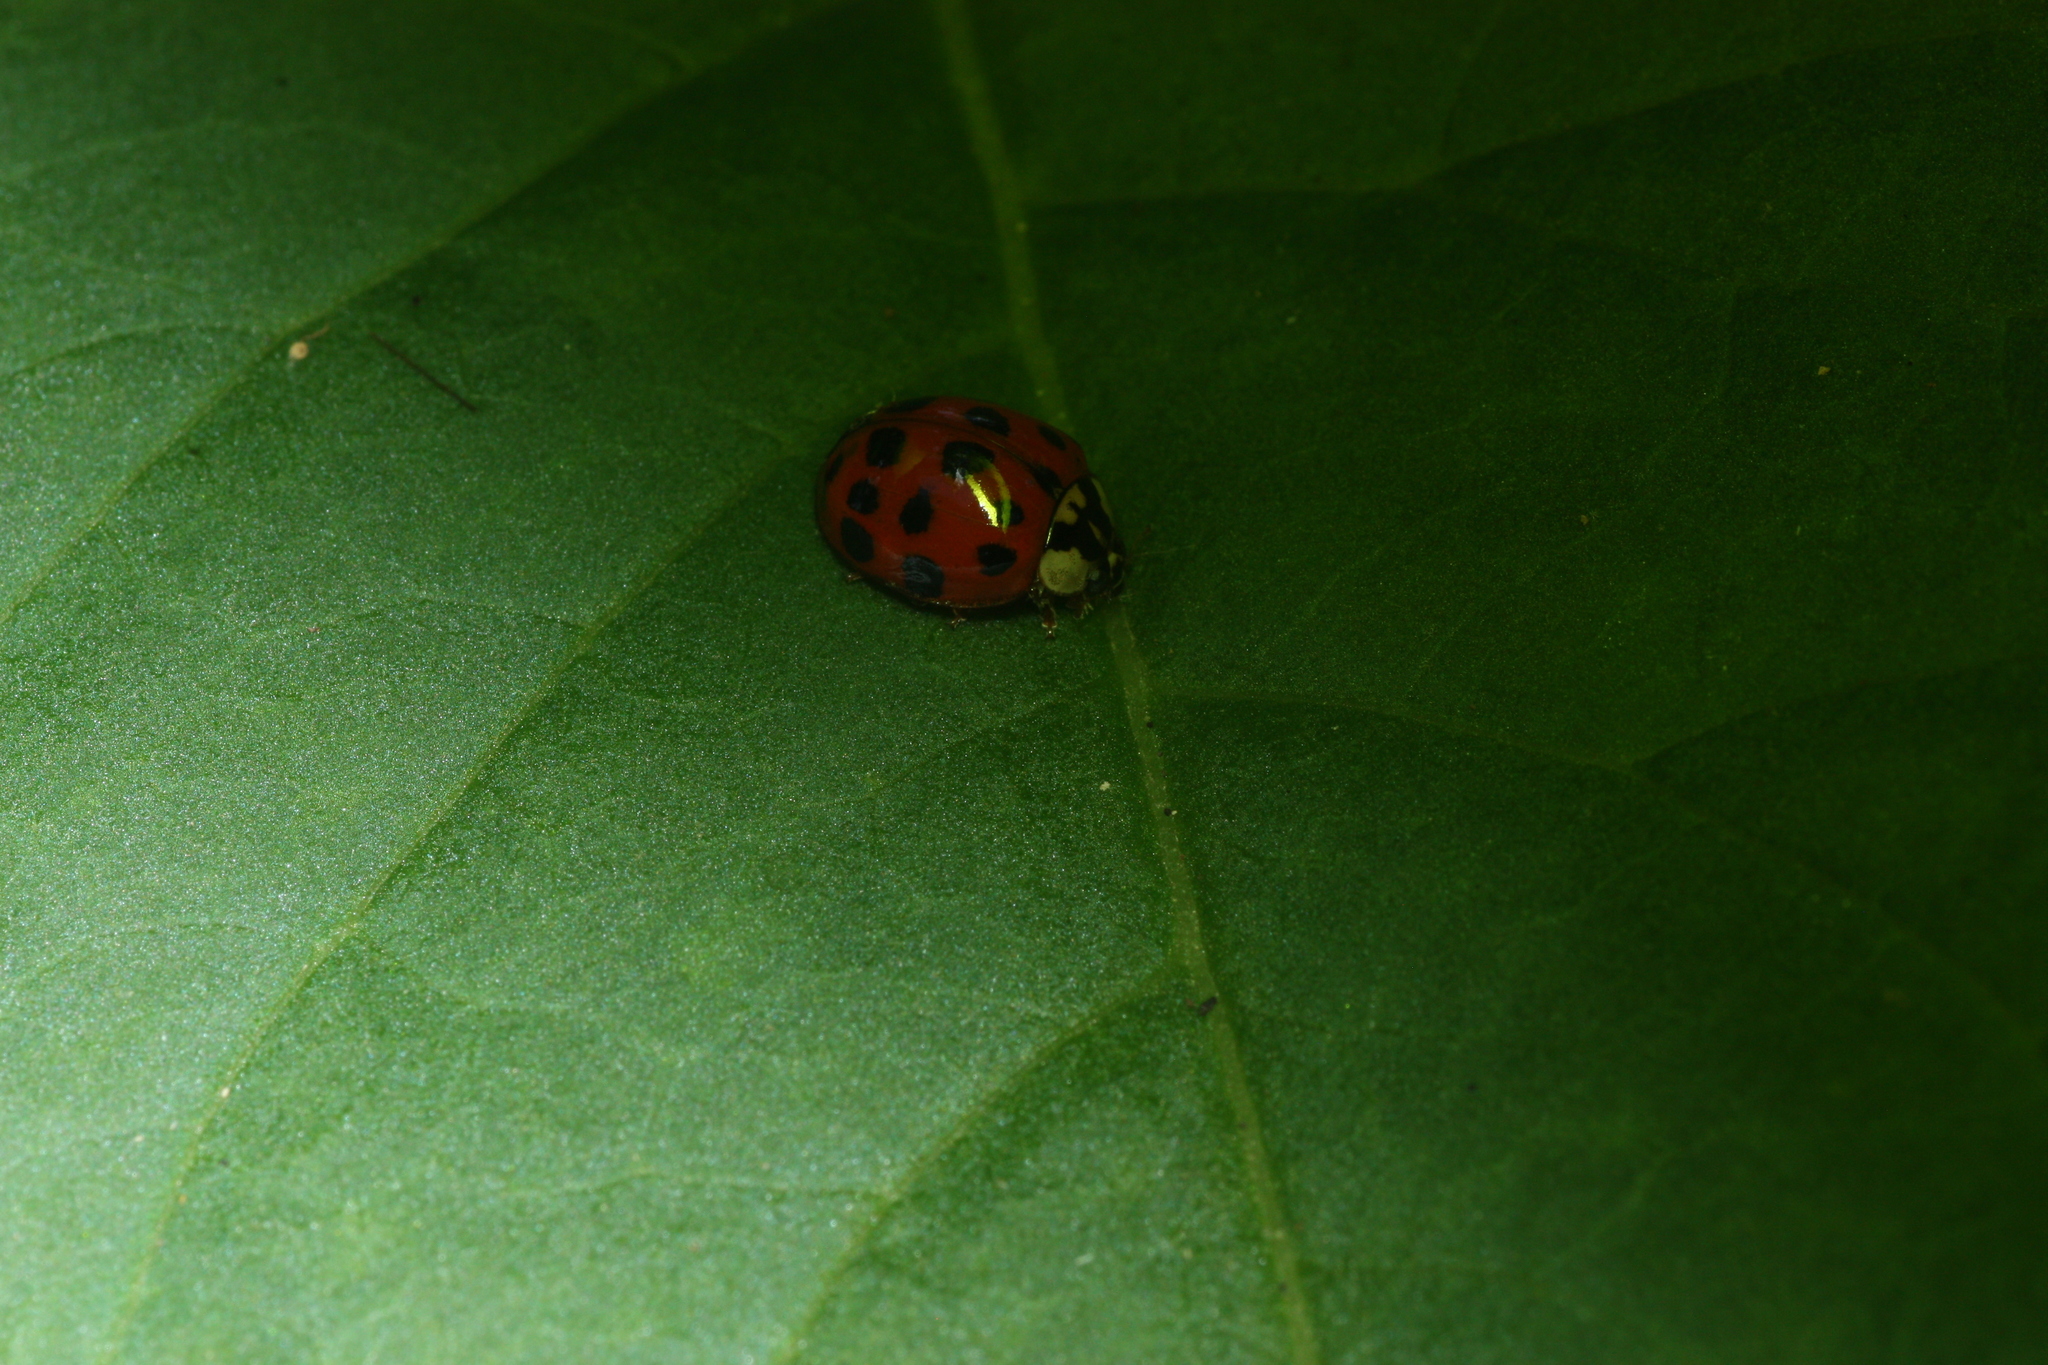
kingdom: Animalia
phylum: Arthropoda
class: Insecta
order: Coleoptera
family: Coccinellidae
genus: Harmonia
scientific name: Harmonia axyridis
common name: Harlequin ladybird
